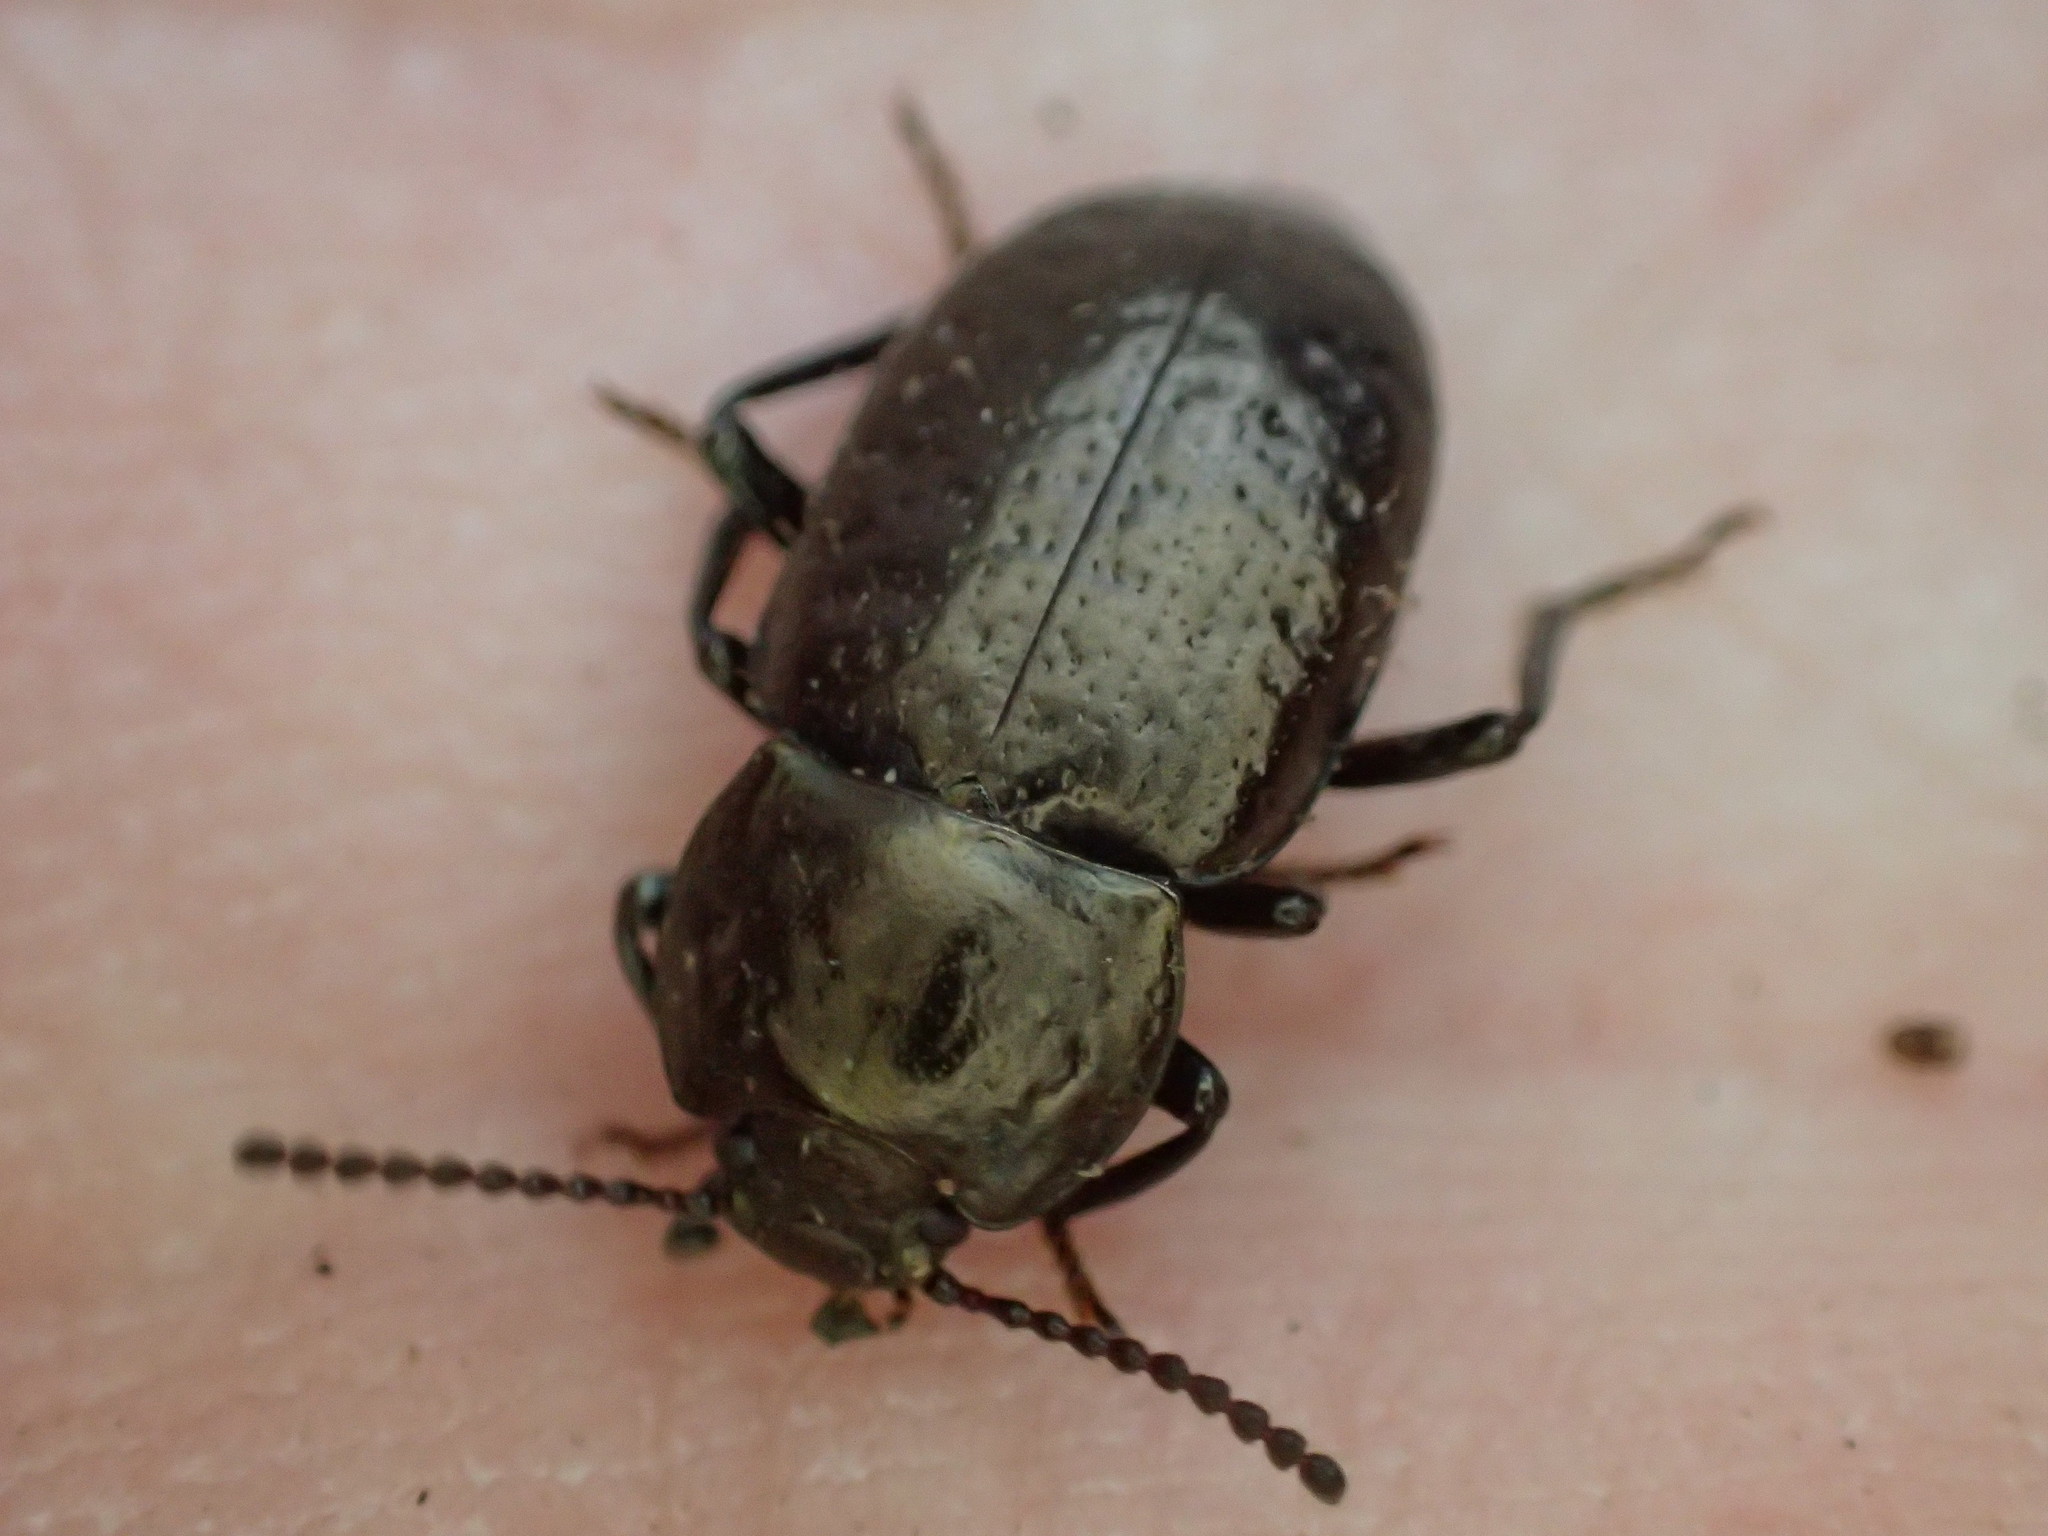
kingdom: Animalia
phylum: Arthropoda
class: Insecta
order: Coleoptera
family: Tenebrionidae
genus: Adelium
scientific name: Adelium abbreviatum
